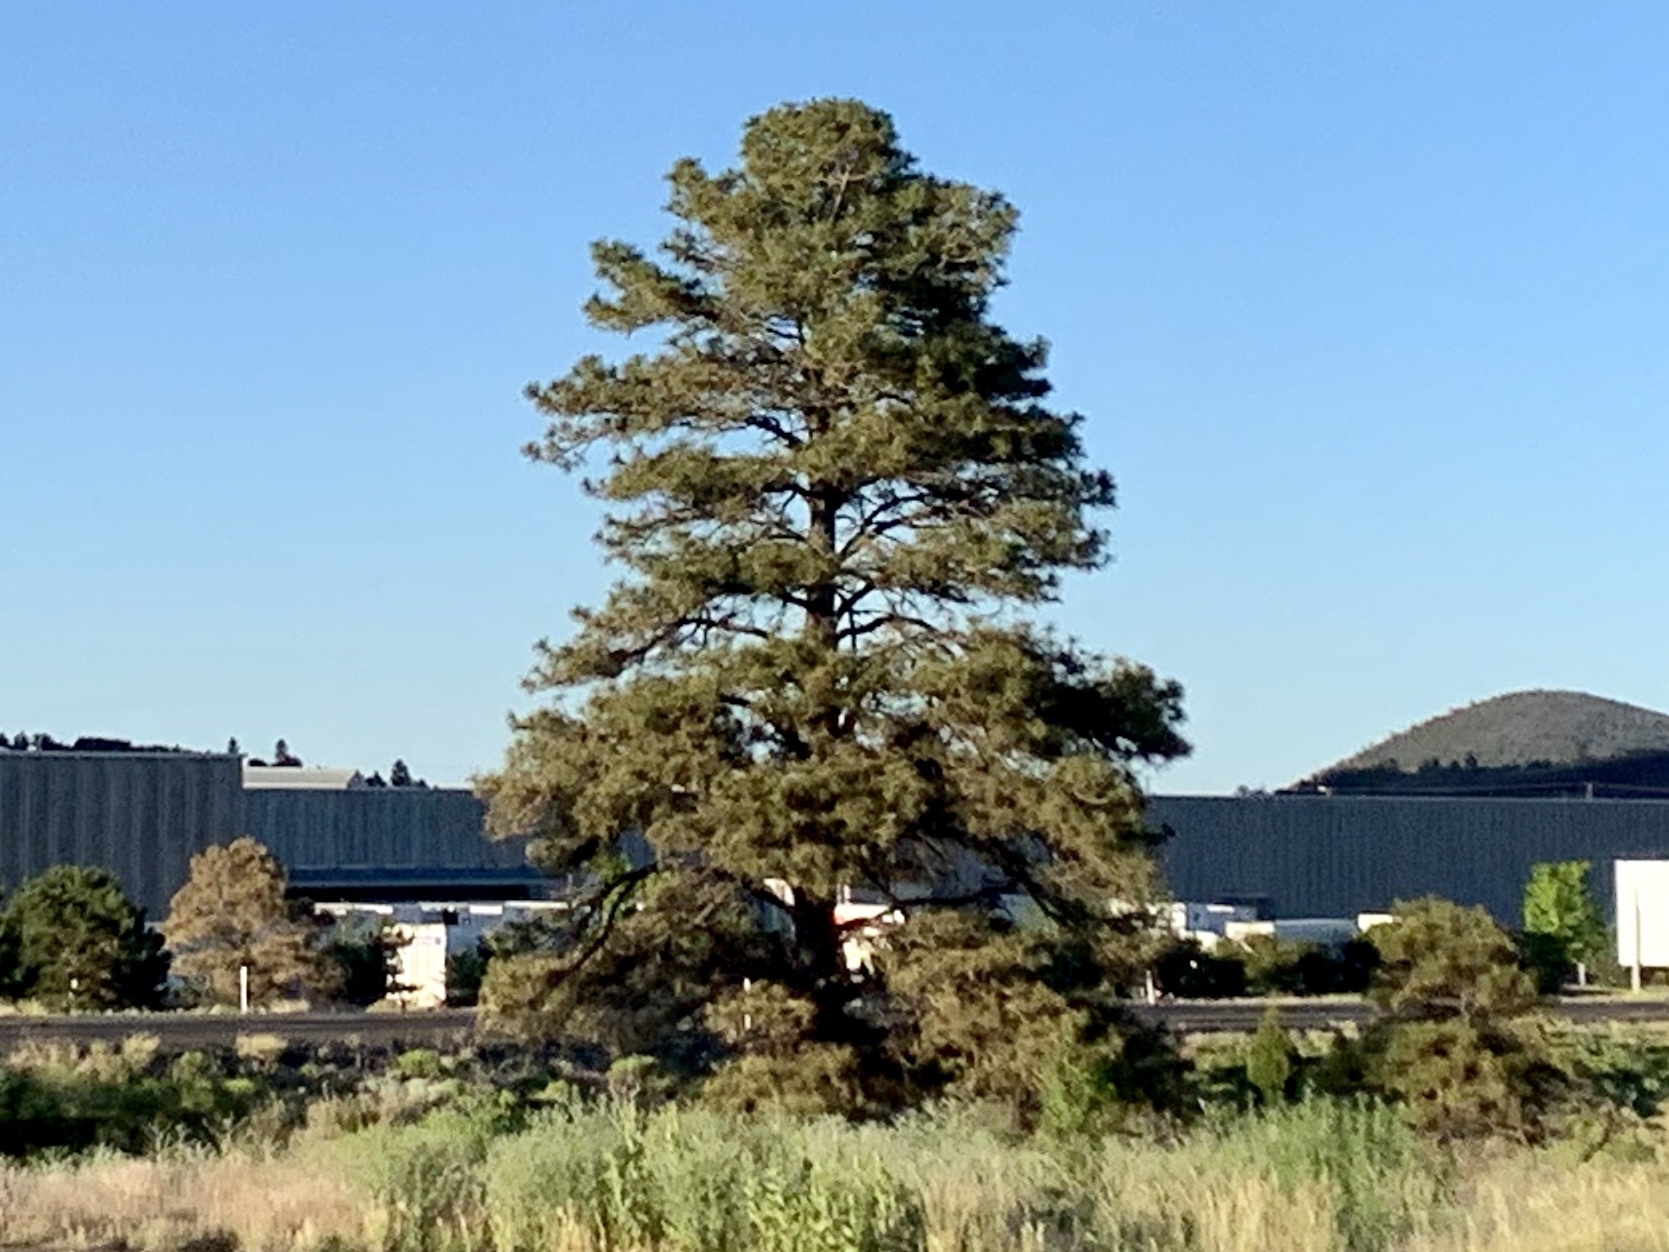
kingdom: Plantae
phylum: Tracheophyta
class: Pinopsida
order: Pinales
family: Pinaceae
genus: Pinus
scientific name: Pinus ponderosa
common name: Western yellow-pine
